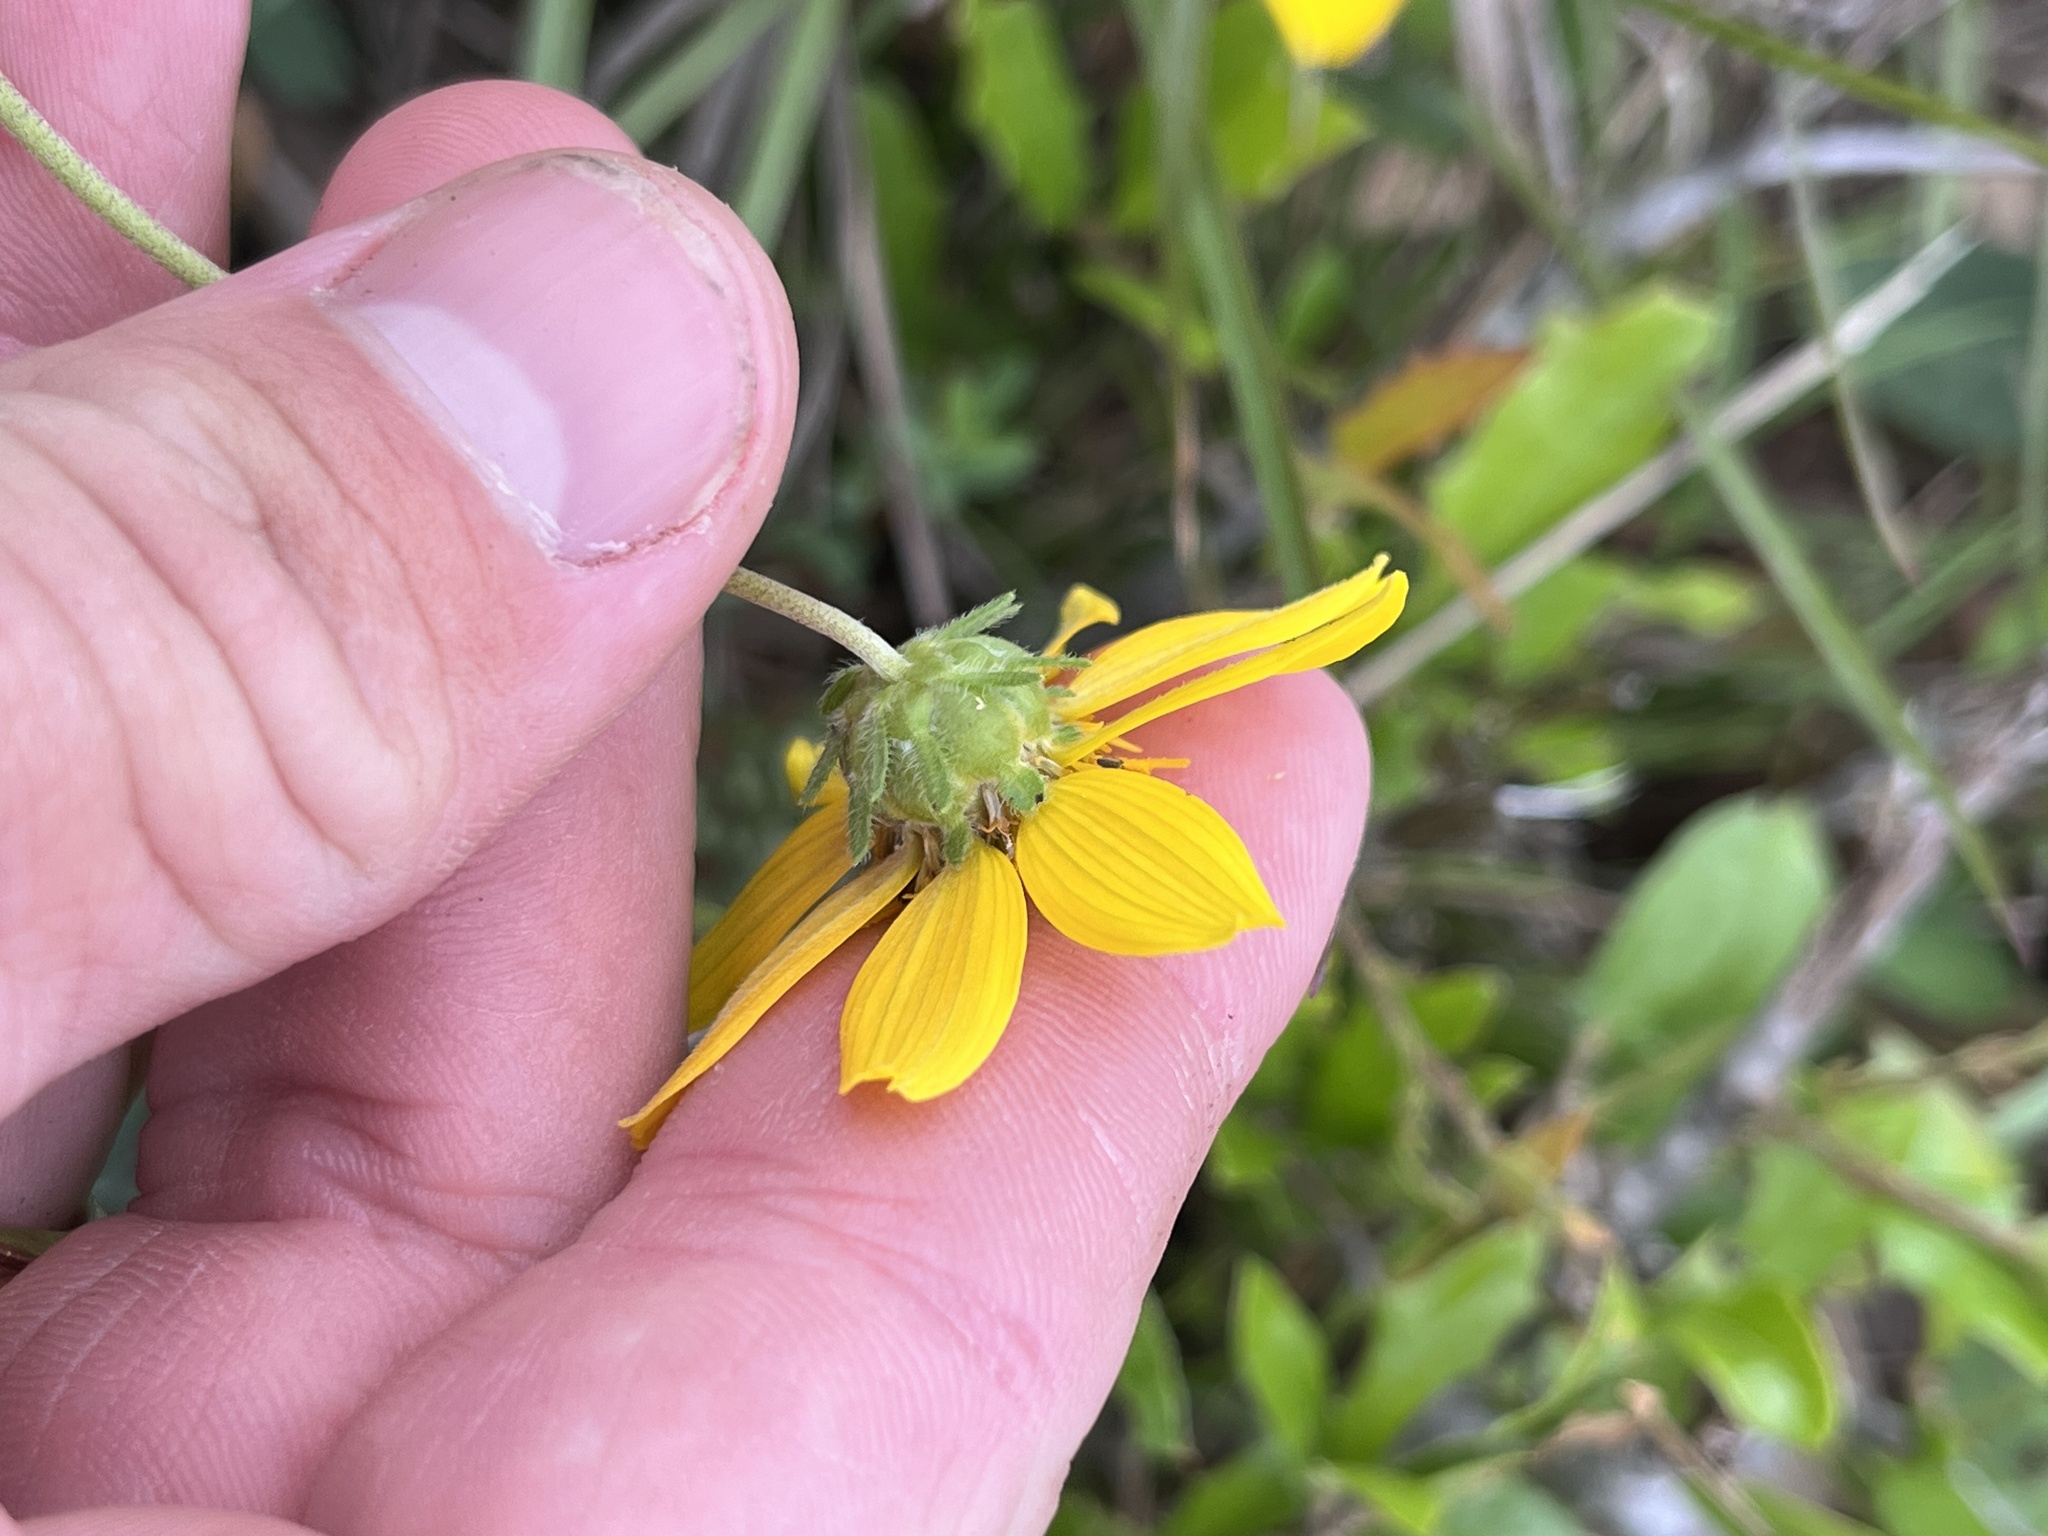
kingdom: Plantae
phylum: Tracheophyta
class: Magnoliopsida
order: Asterales
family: Asteraceae
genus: Engelmannia
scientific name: Engelmannia peristenia
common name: Engelmann's daisy
